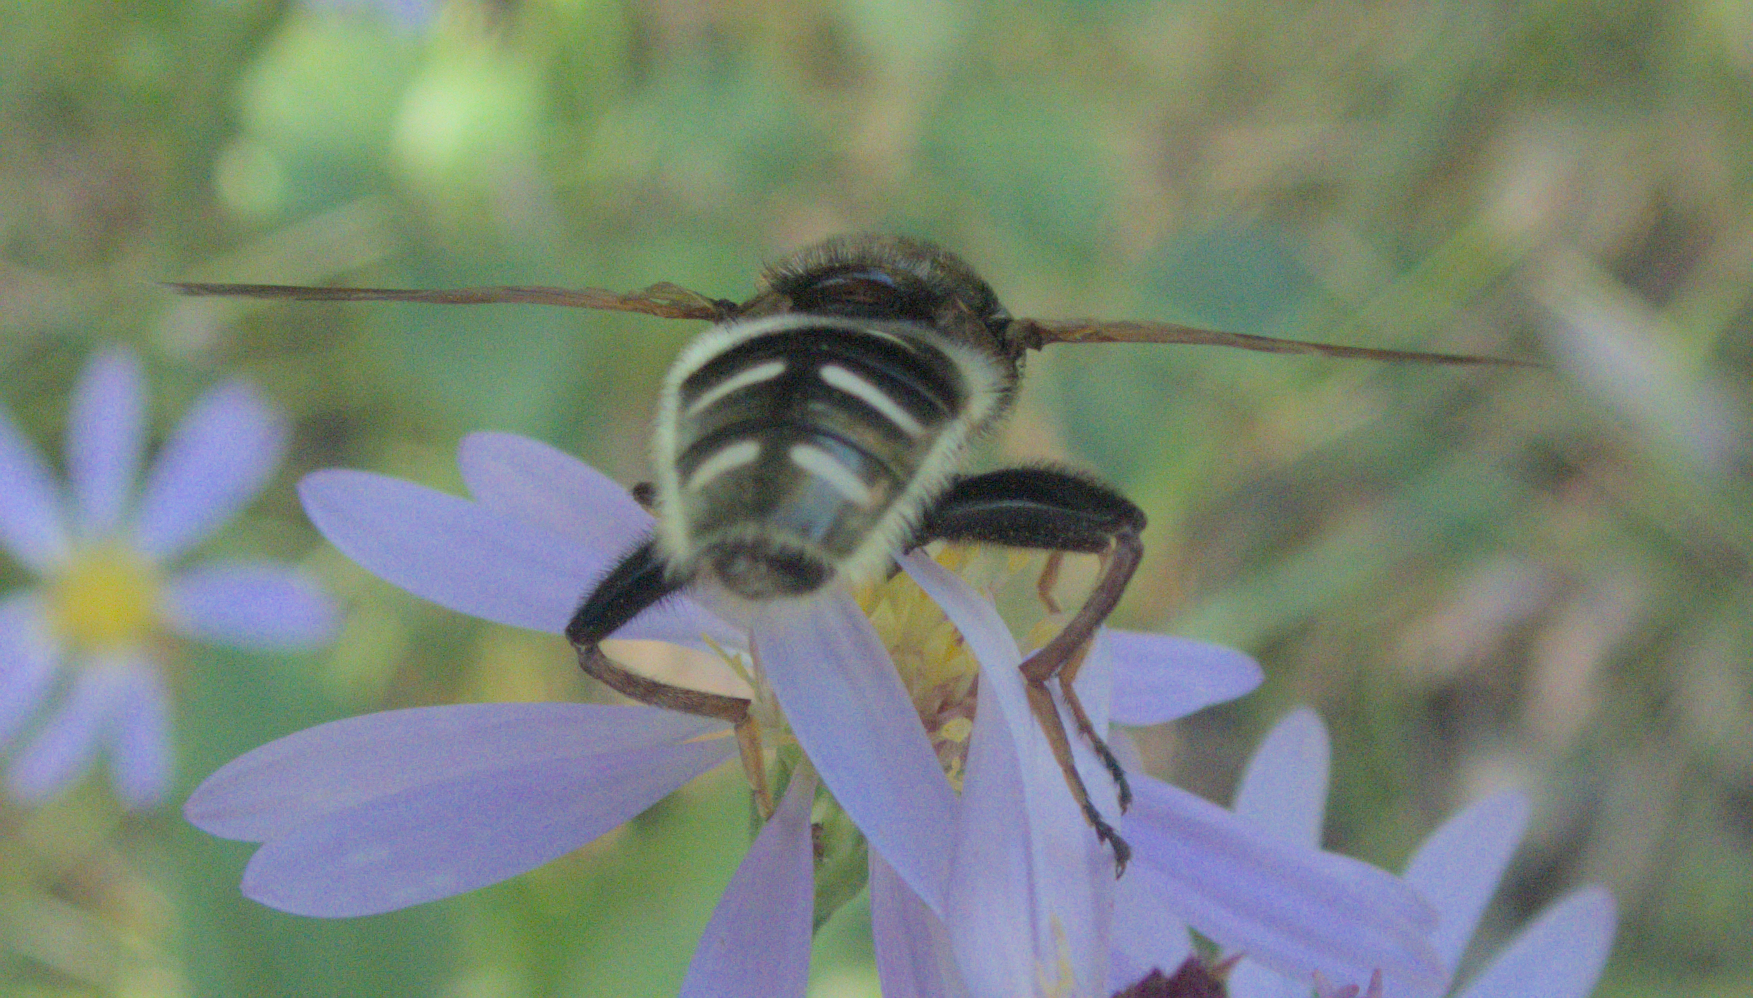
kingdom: Animalia
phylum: Arthropoda
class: Insecta
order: Diptera
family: Syrphidae
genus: Sericomyia
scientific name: Sericomyia militaris
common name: Narrow-banded pond fly
